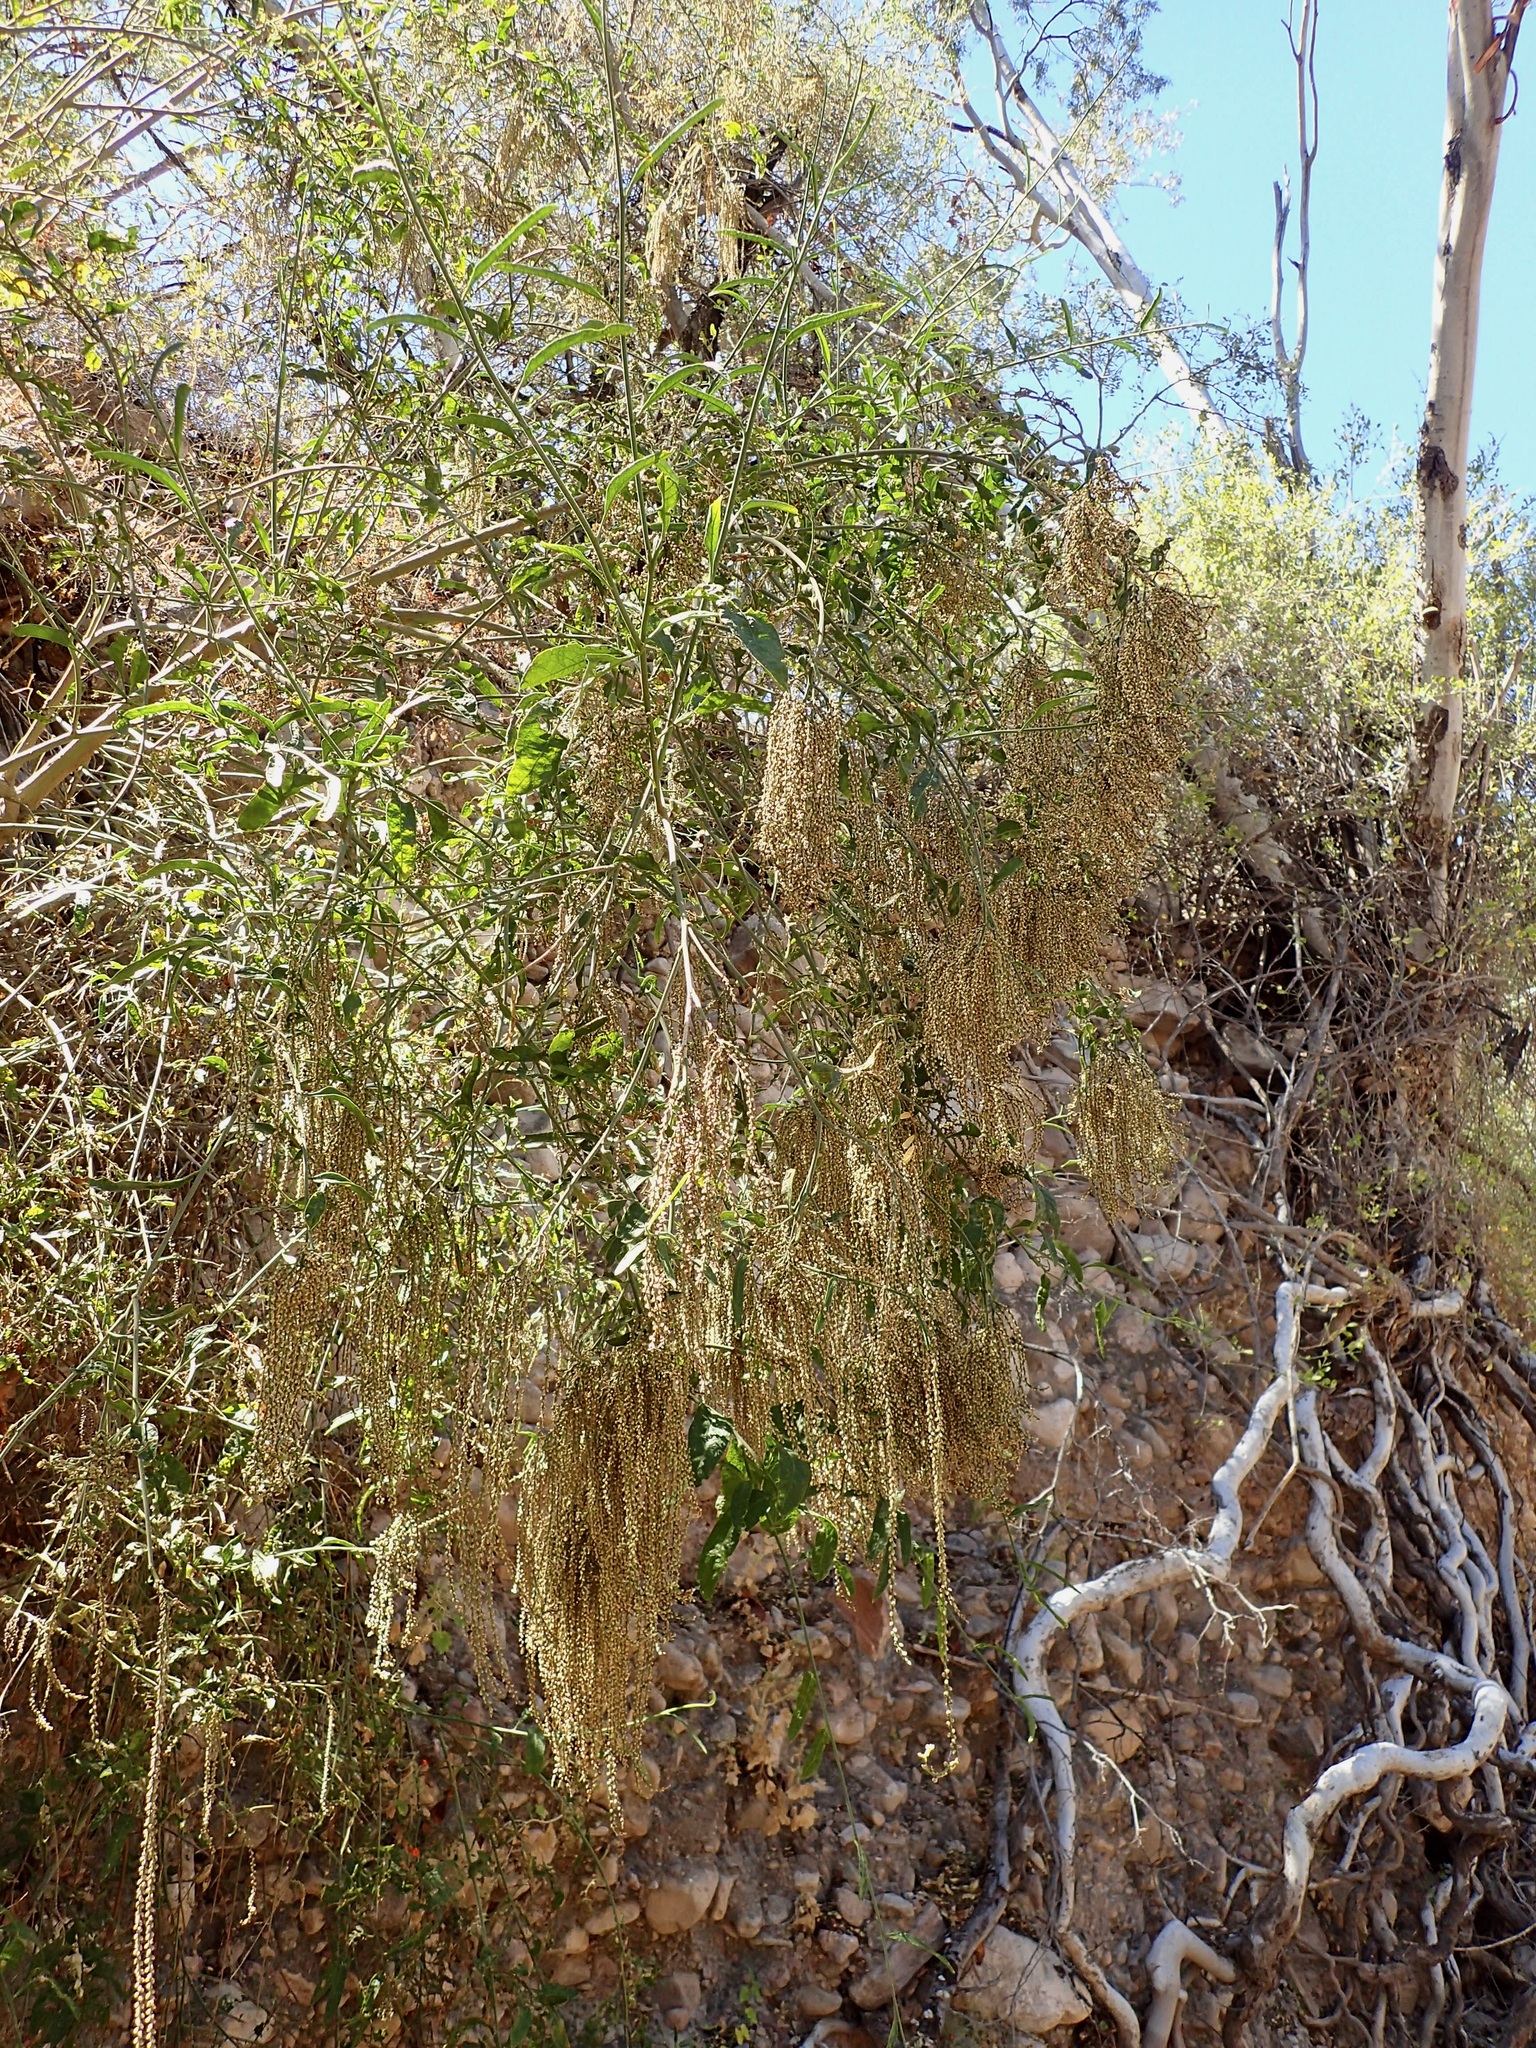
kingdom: Plantae
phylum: Tracheophyta
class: Magnoliopsida
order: Caryophyllales
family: Amaranthaceae
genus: Celosia
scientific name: Celosia floribunda
